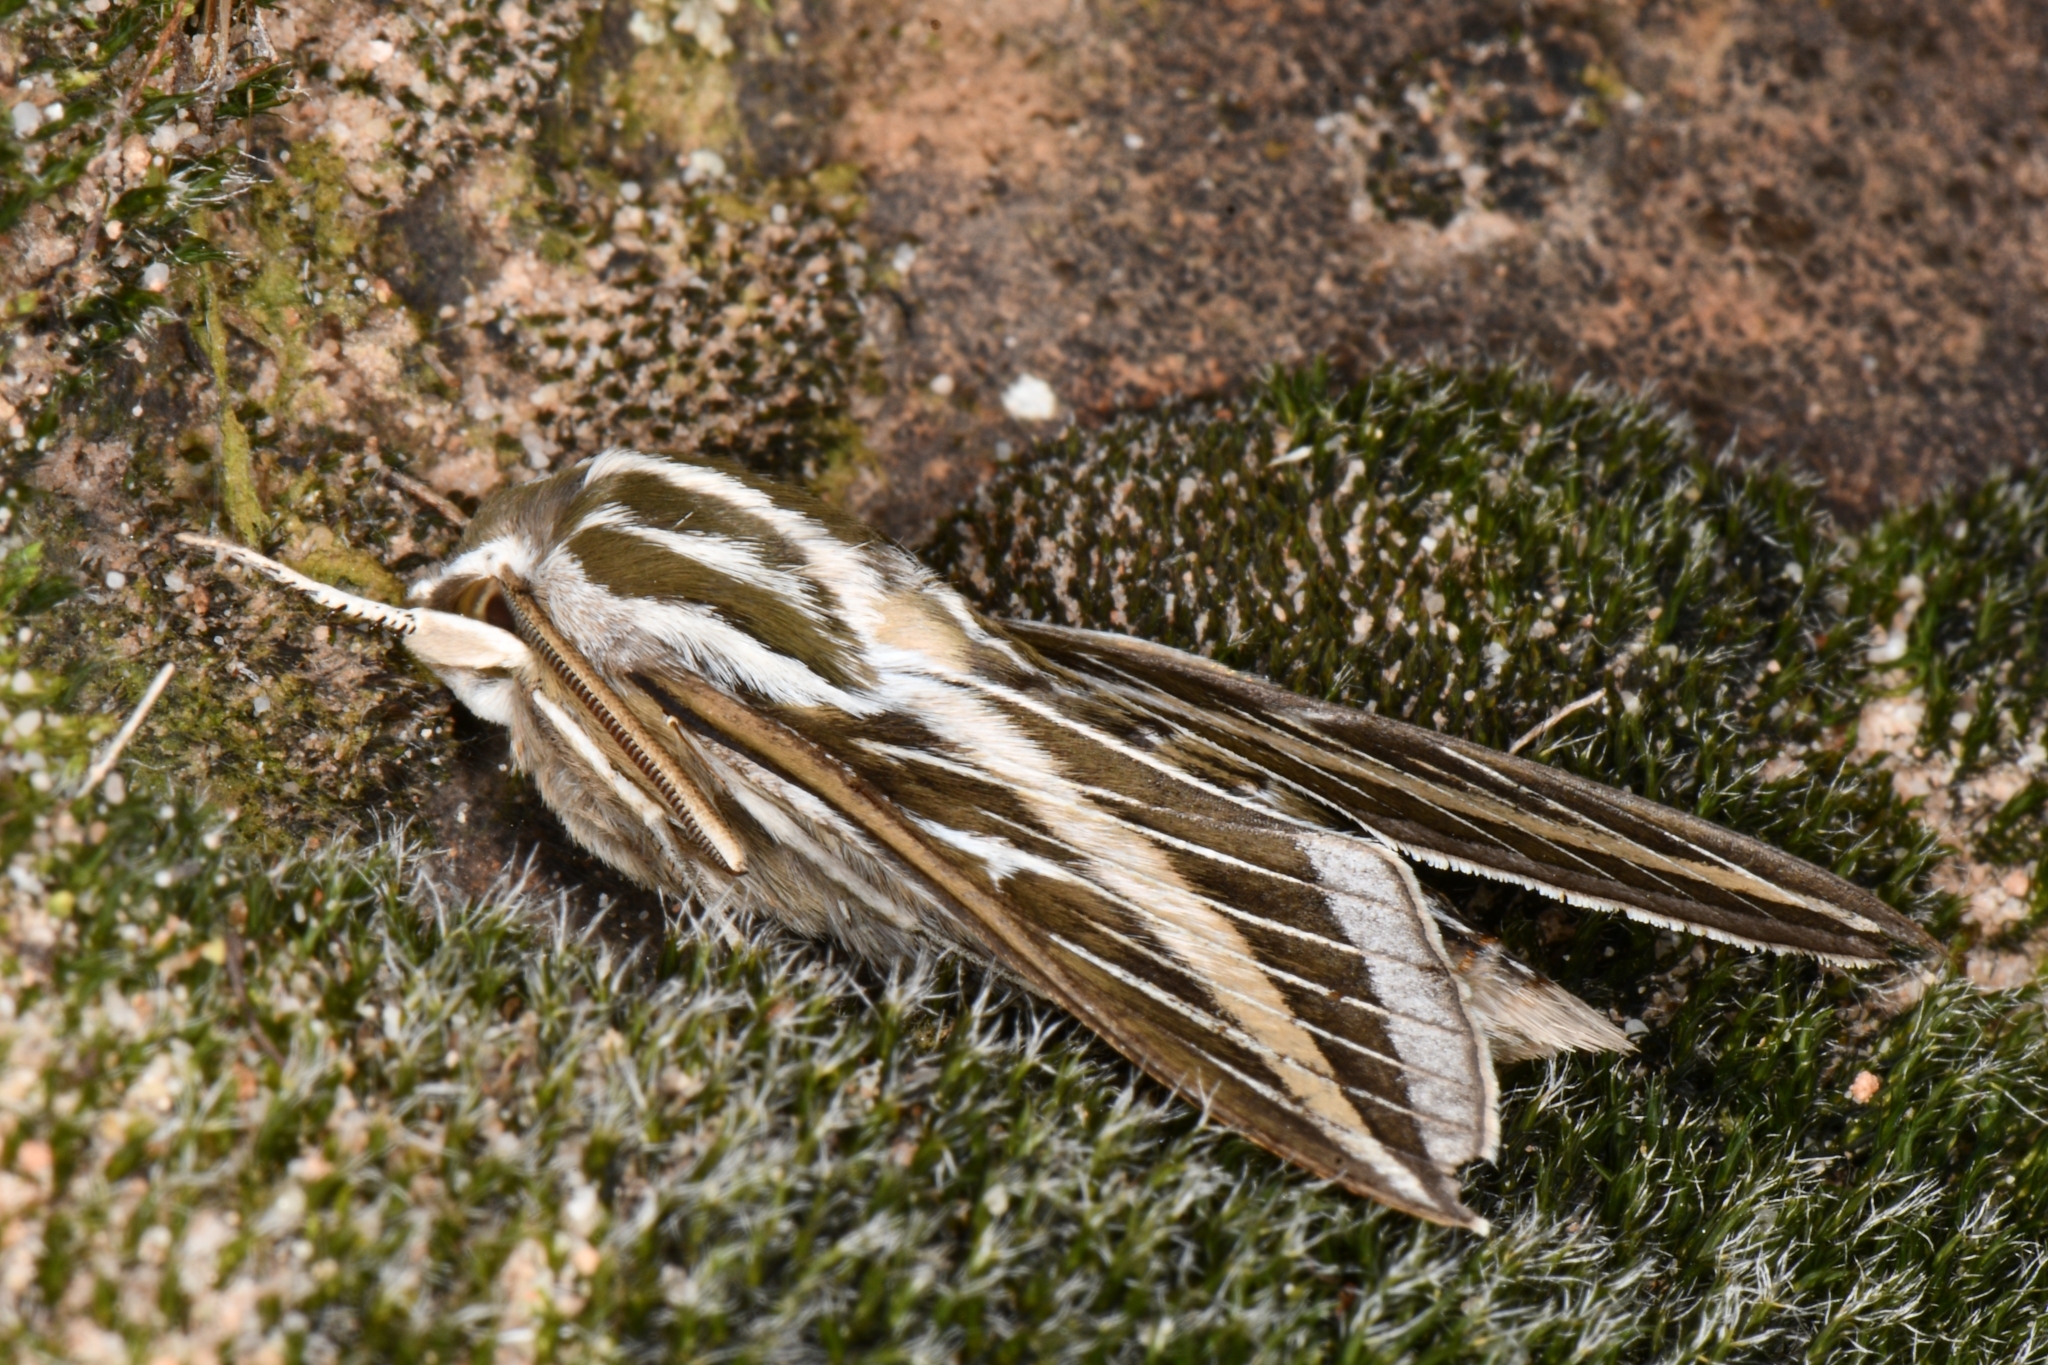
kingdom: Animalia
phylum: Arthropoda
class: Insecta
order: Lepidoptera
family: Sphingidae
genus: Hyles
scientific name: Hyles lineata
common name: White-lined sphinx
